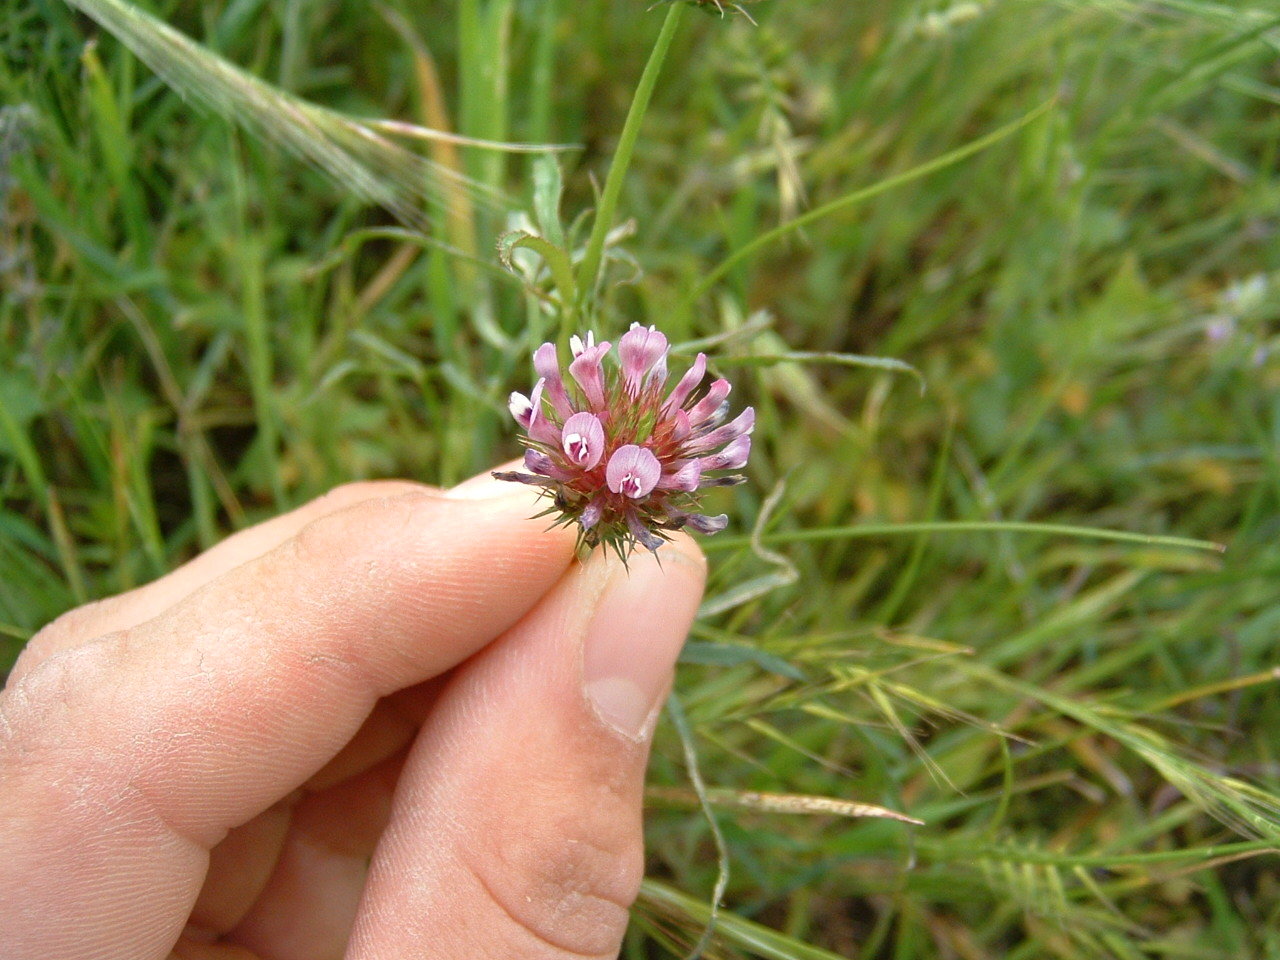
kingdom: Plantae
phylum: Tracheophyta
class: Magnoliopsida
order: Fabales
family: Fabaceae
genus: Trifolium
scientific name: Trifolium willdenovii
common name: Tomcat clover
